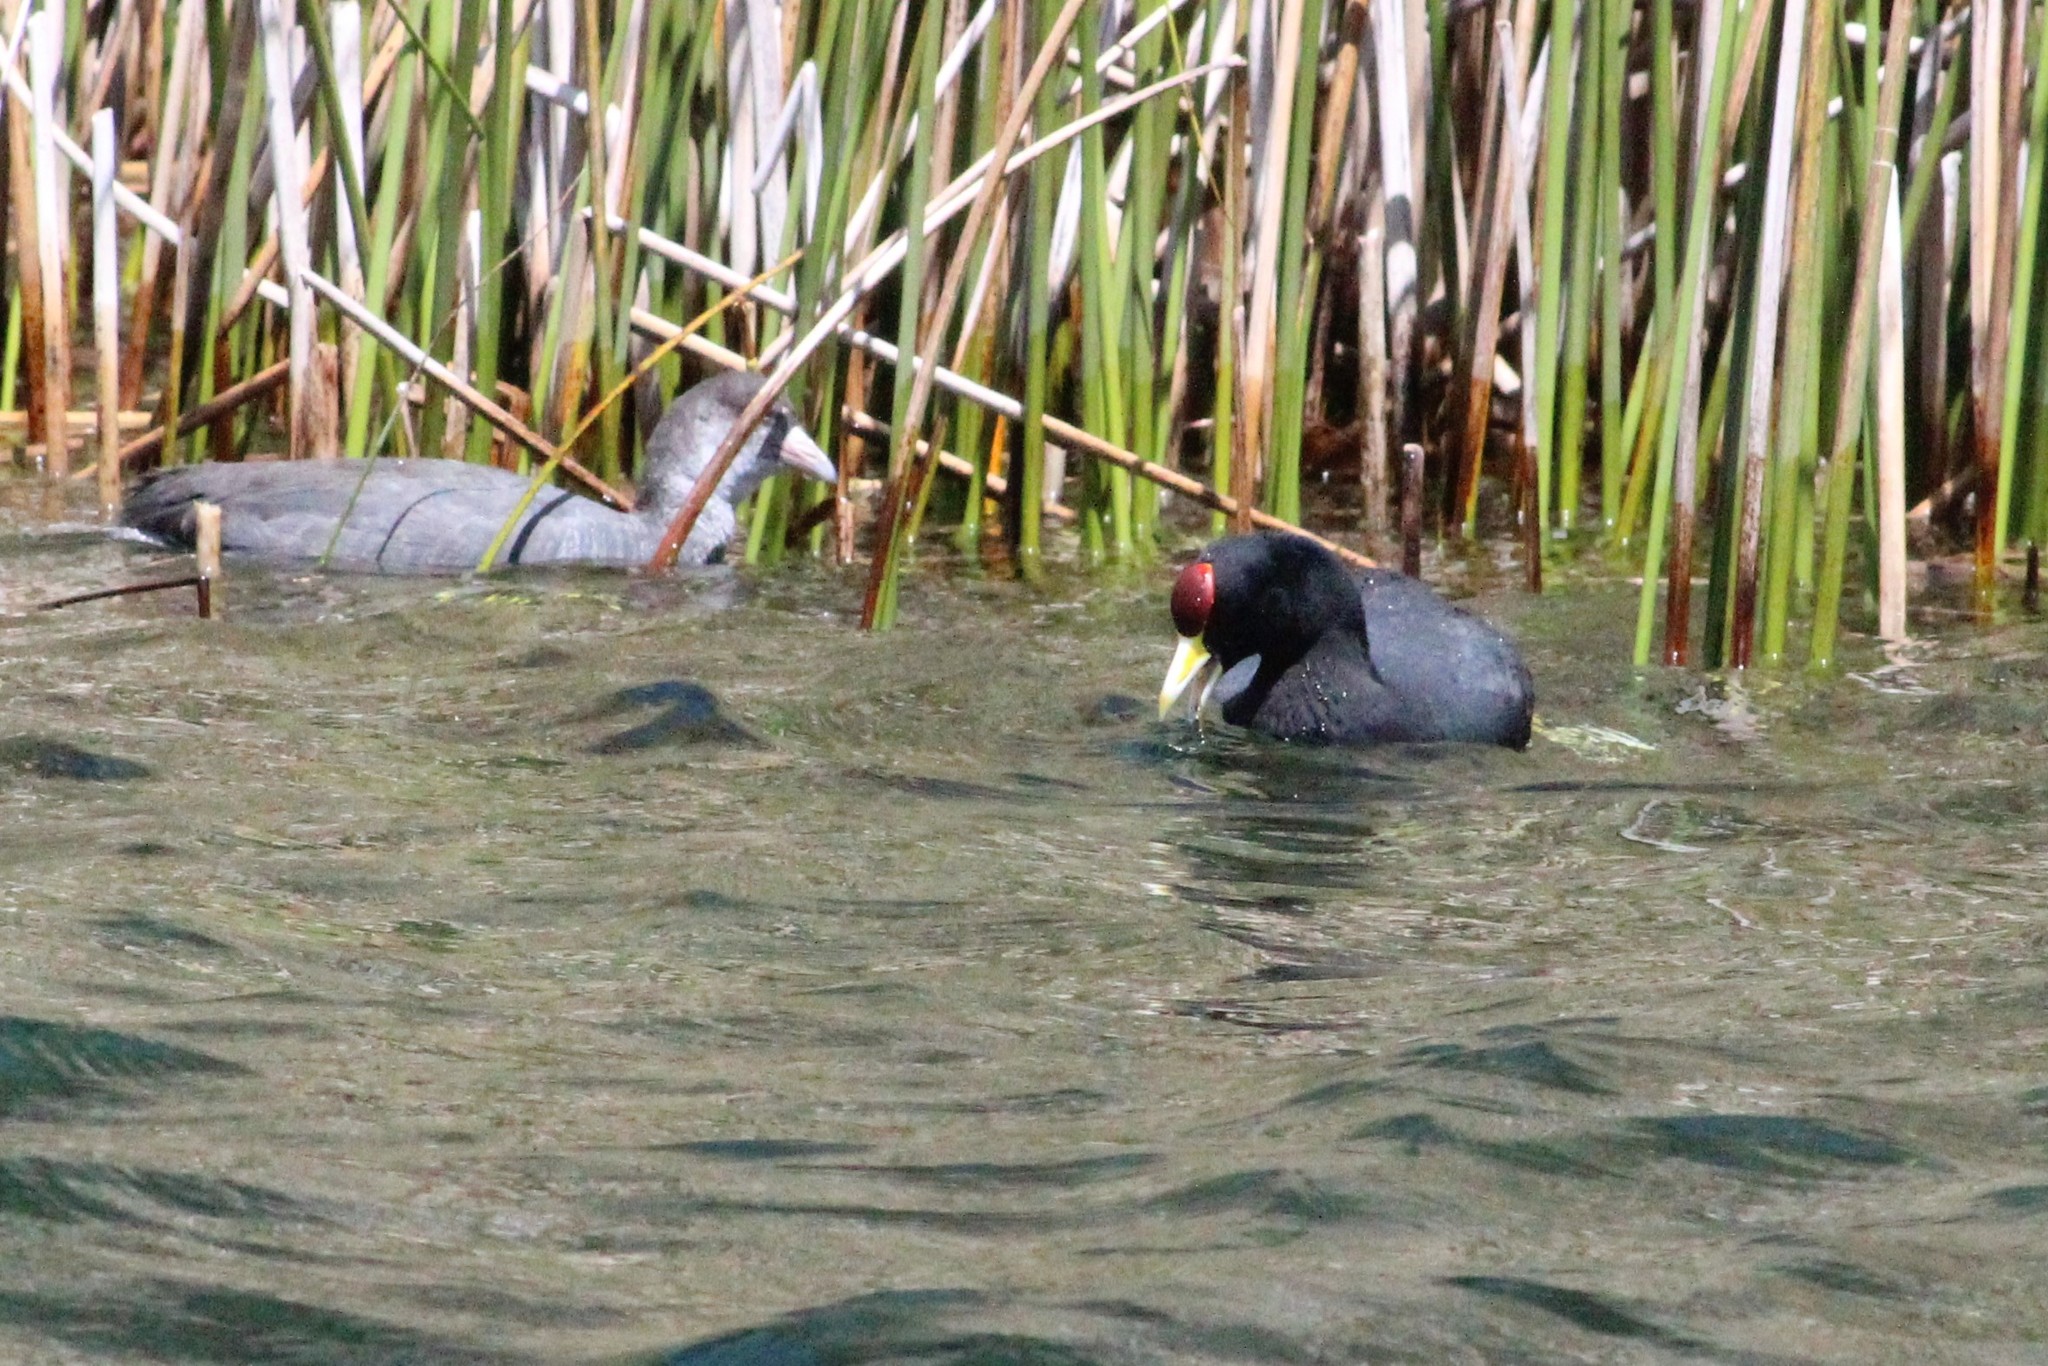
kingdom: Animalia
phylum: Chordata
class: Aves
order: Gruiformes
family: Rallidae
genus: Fulica
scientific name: Fulica ardesiaca
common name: Andean coot
